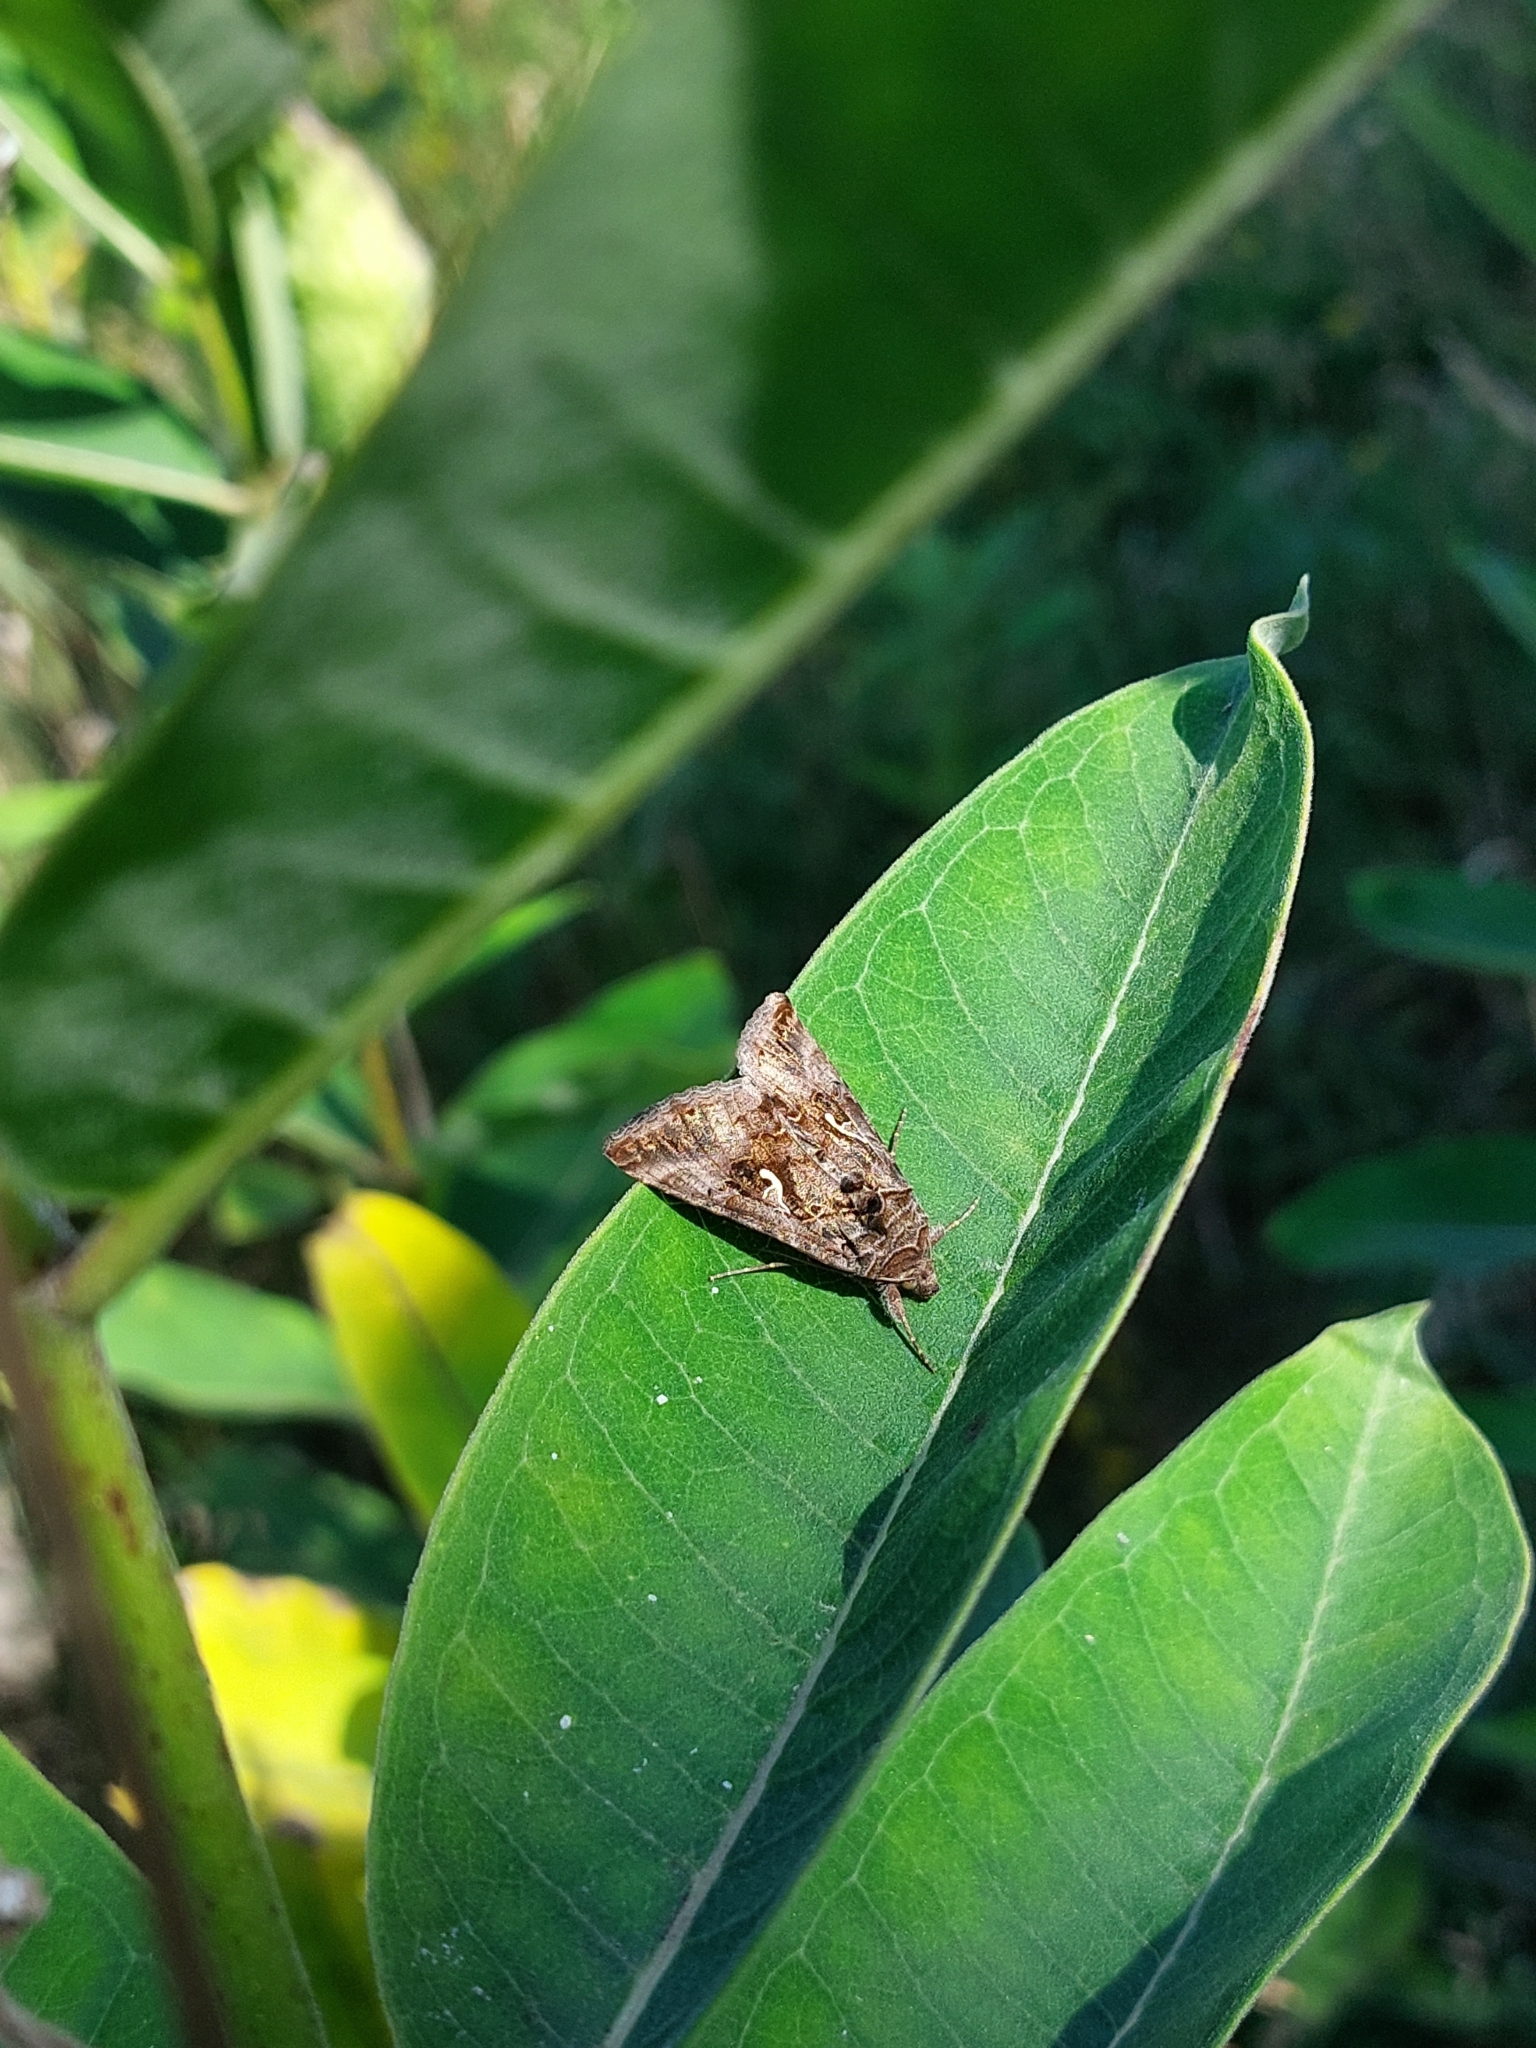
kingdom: Animalia
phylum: Arthropoda
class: Insecta
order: Lepidoptera
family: Noctuidae
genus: Autographa
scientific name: Autographa gamma
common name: Silver y
